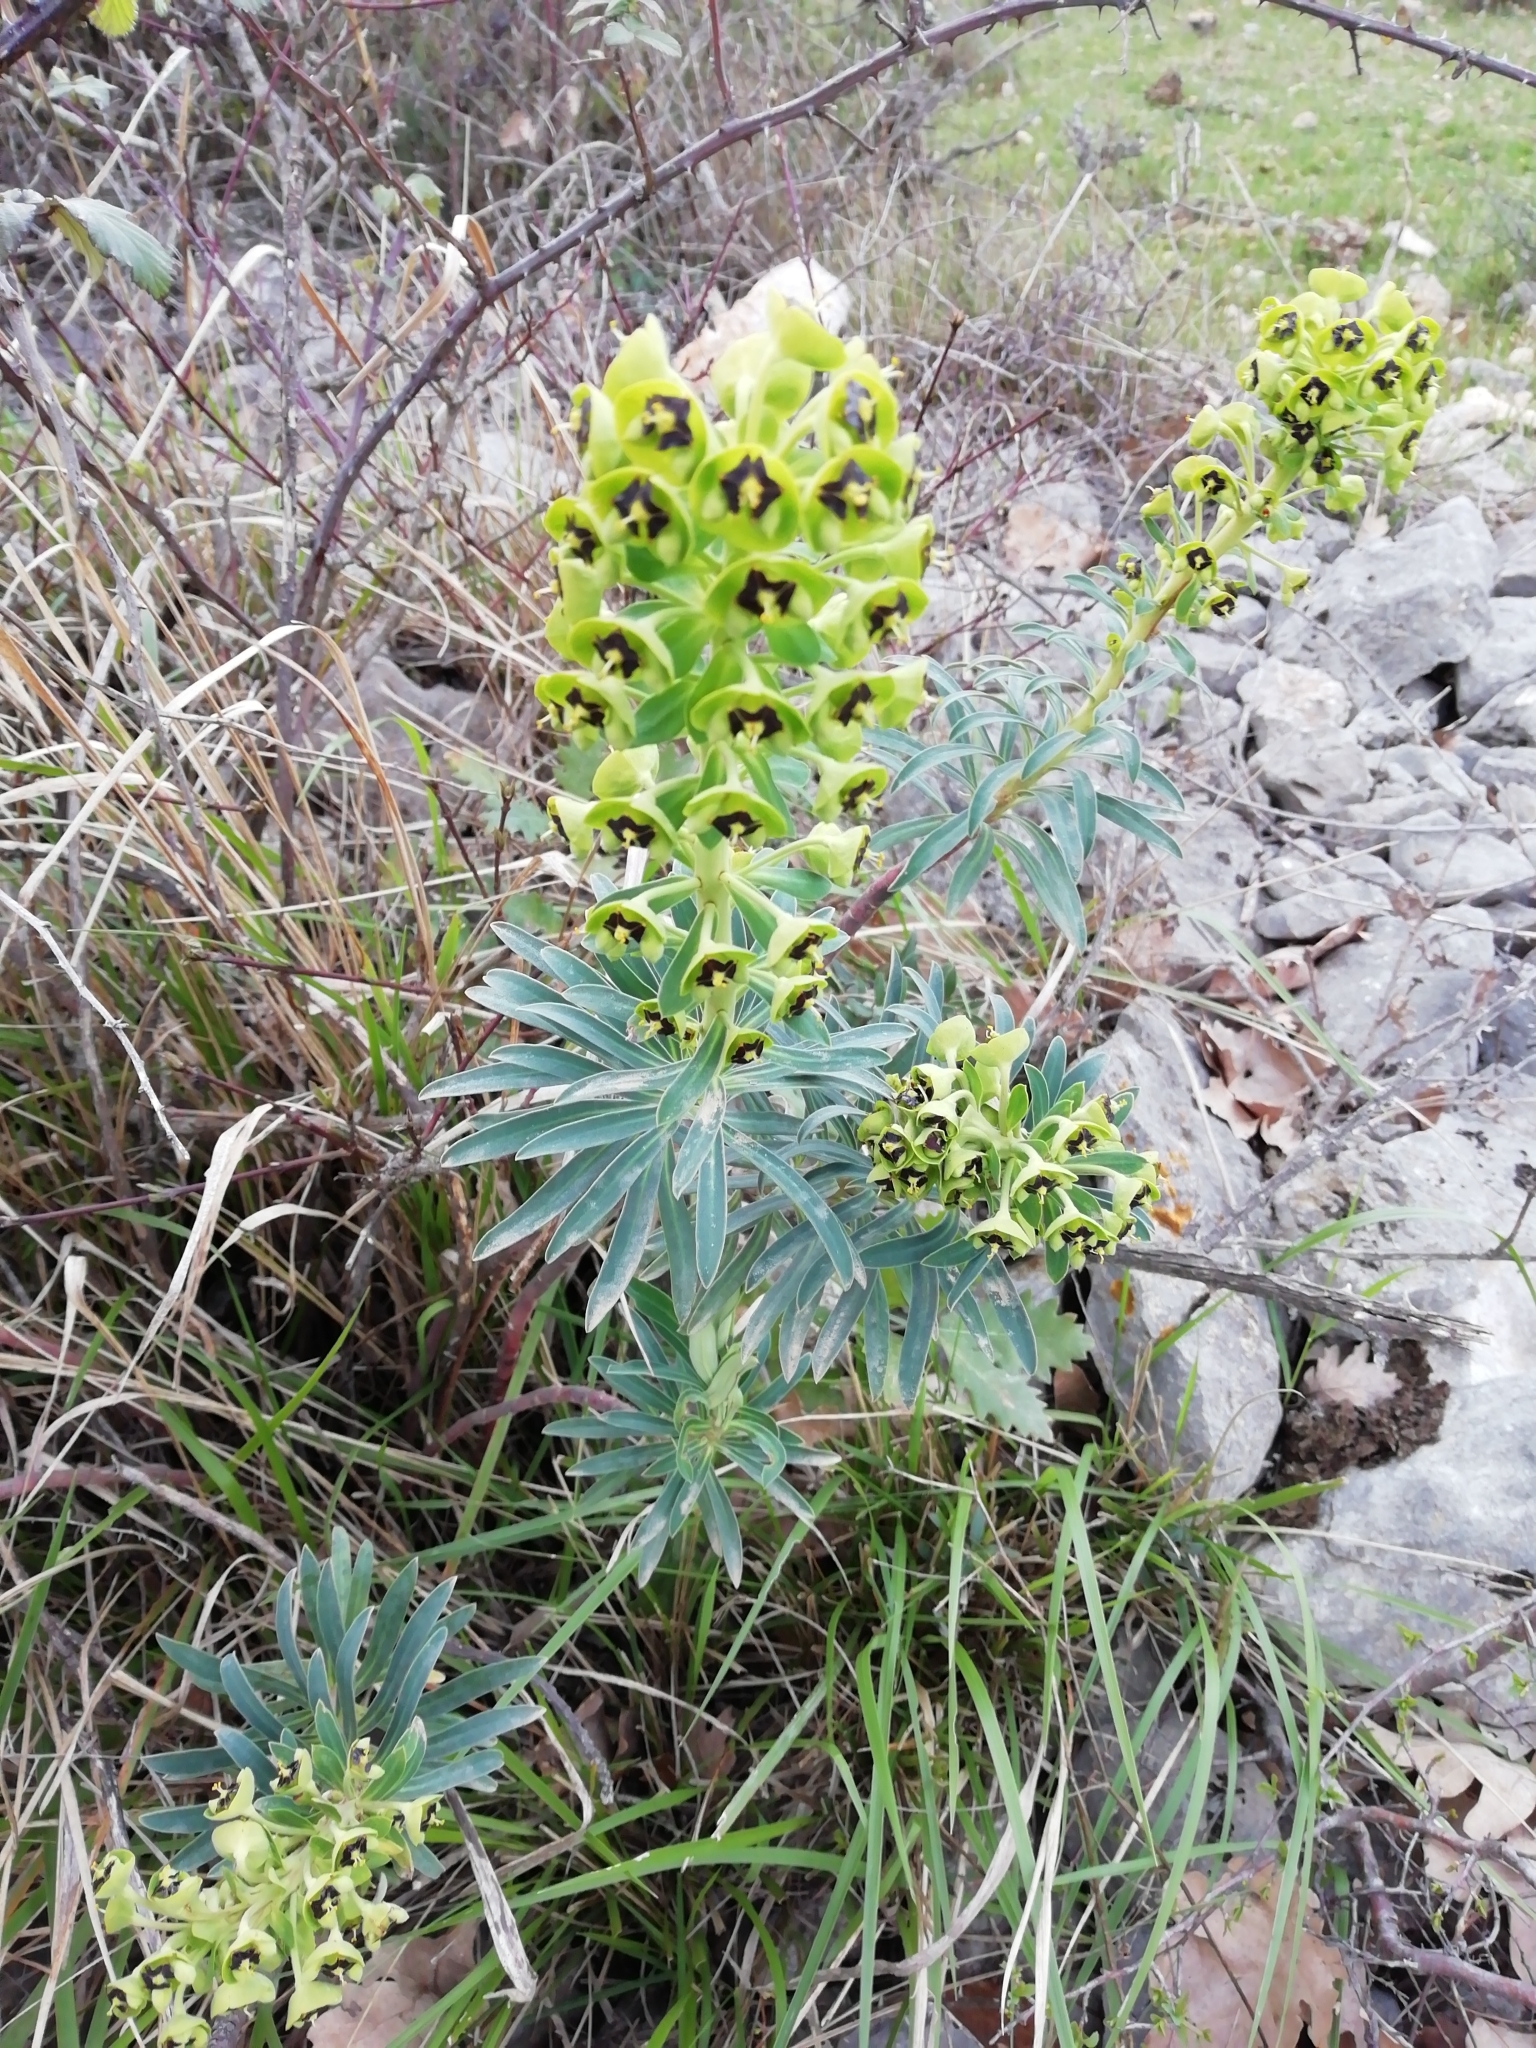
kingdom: Plantae
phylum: Tracheophyta
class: Magnoliopsida
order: Malpighiales
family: Euphorbiaceae
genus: Euphorbia
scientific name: Euphorbia characias
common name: Mediterranean spurge
